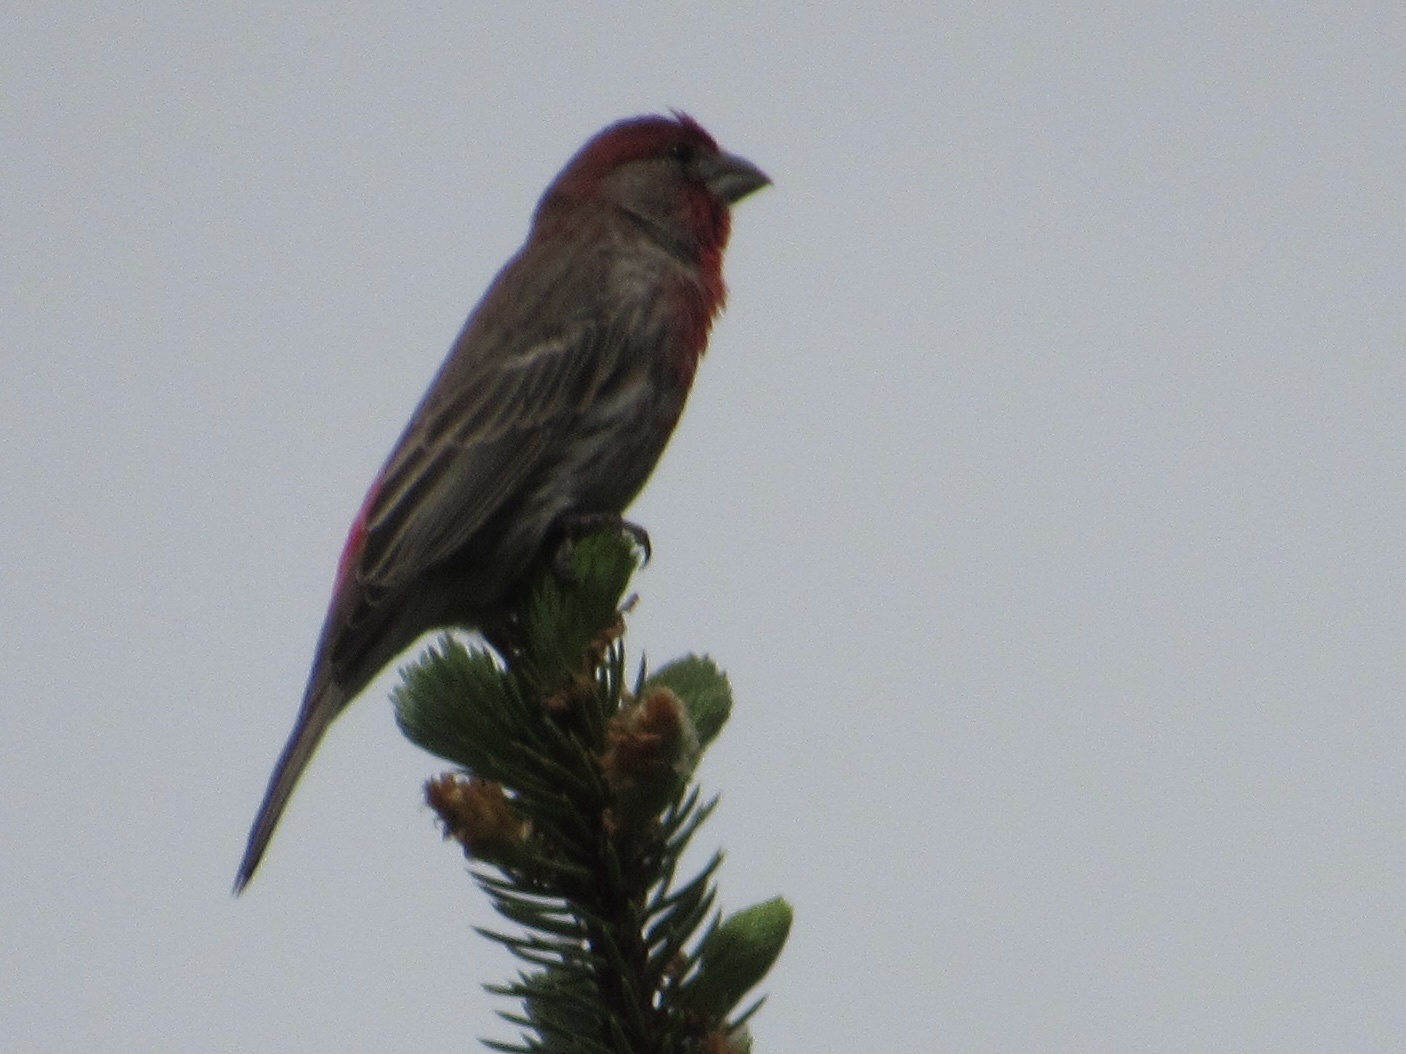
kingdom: Animalia
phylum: Chordata
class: Aves
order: Passeriformes
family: Fringillidae
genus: Haemorhous
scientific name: Haemorhous mexicanus
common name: House finch
